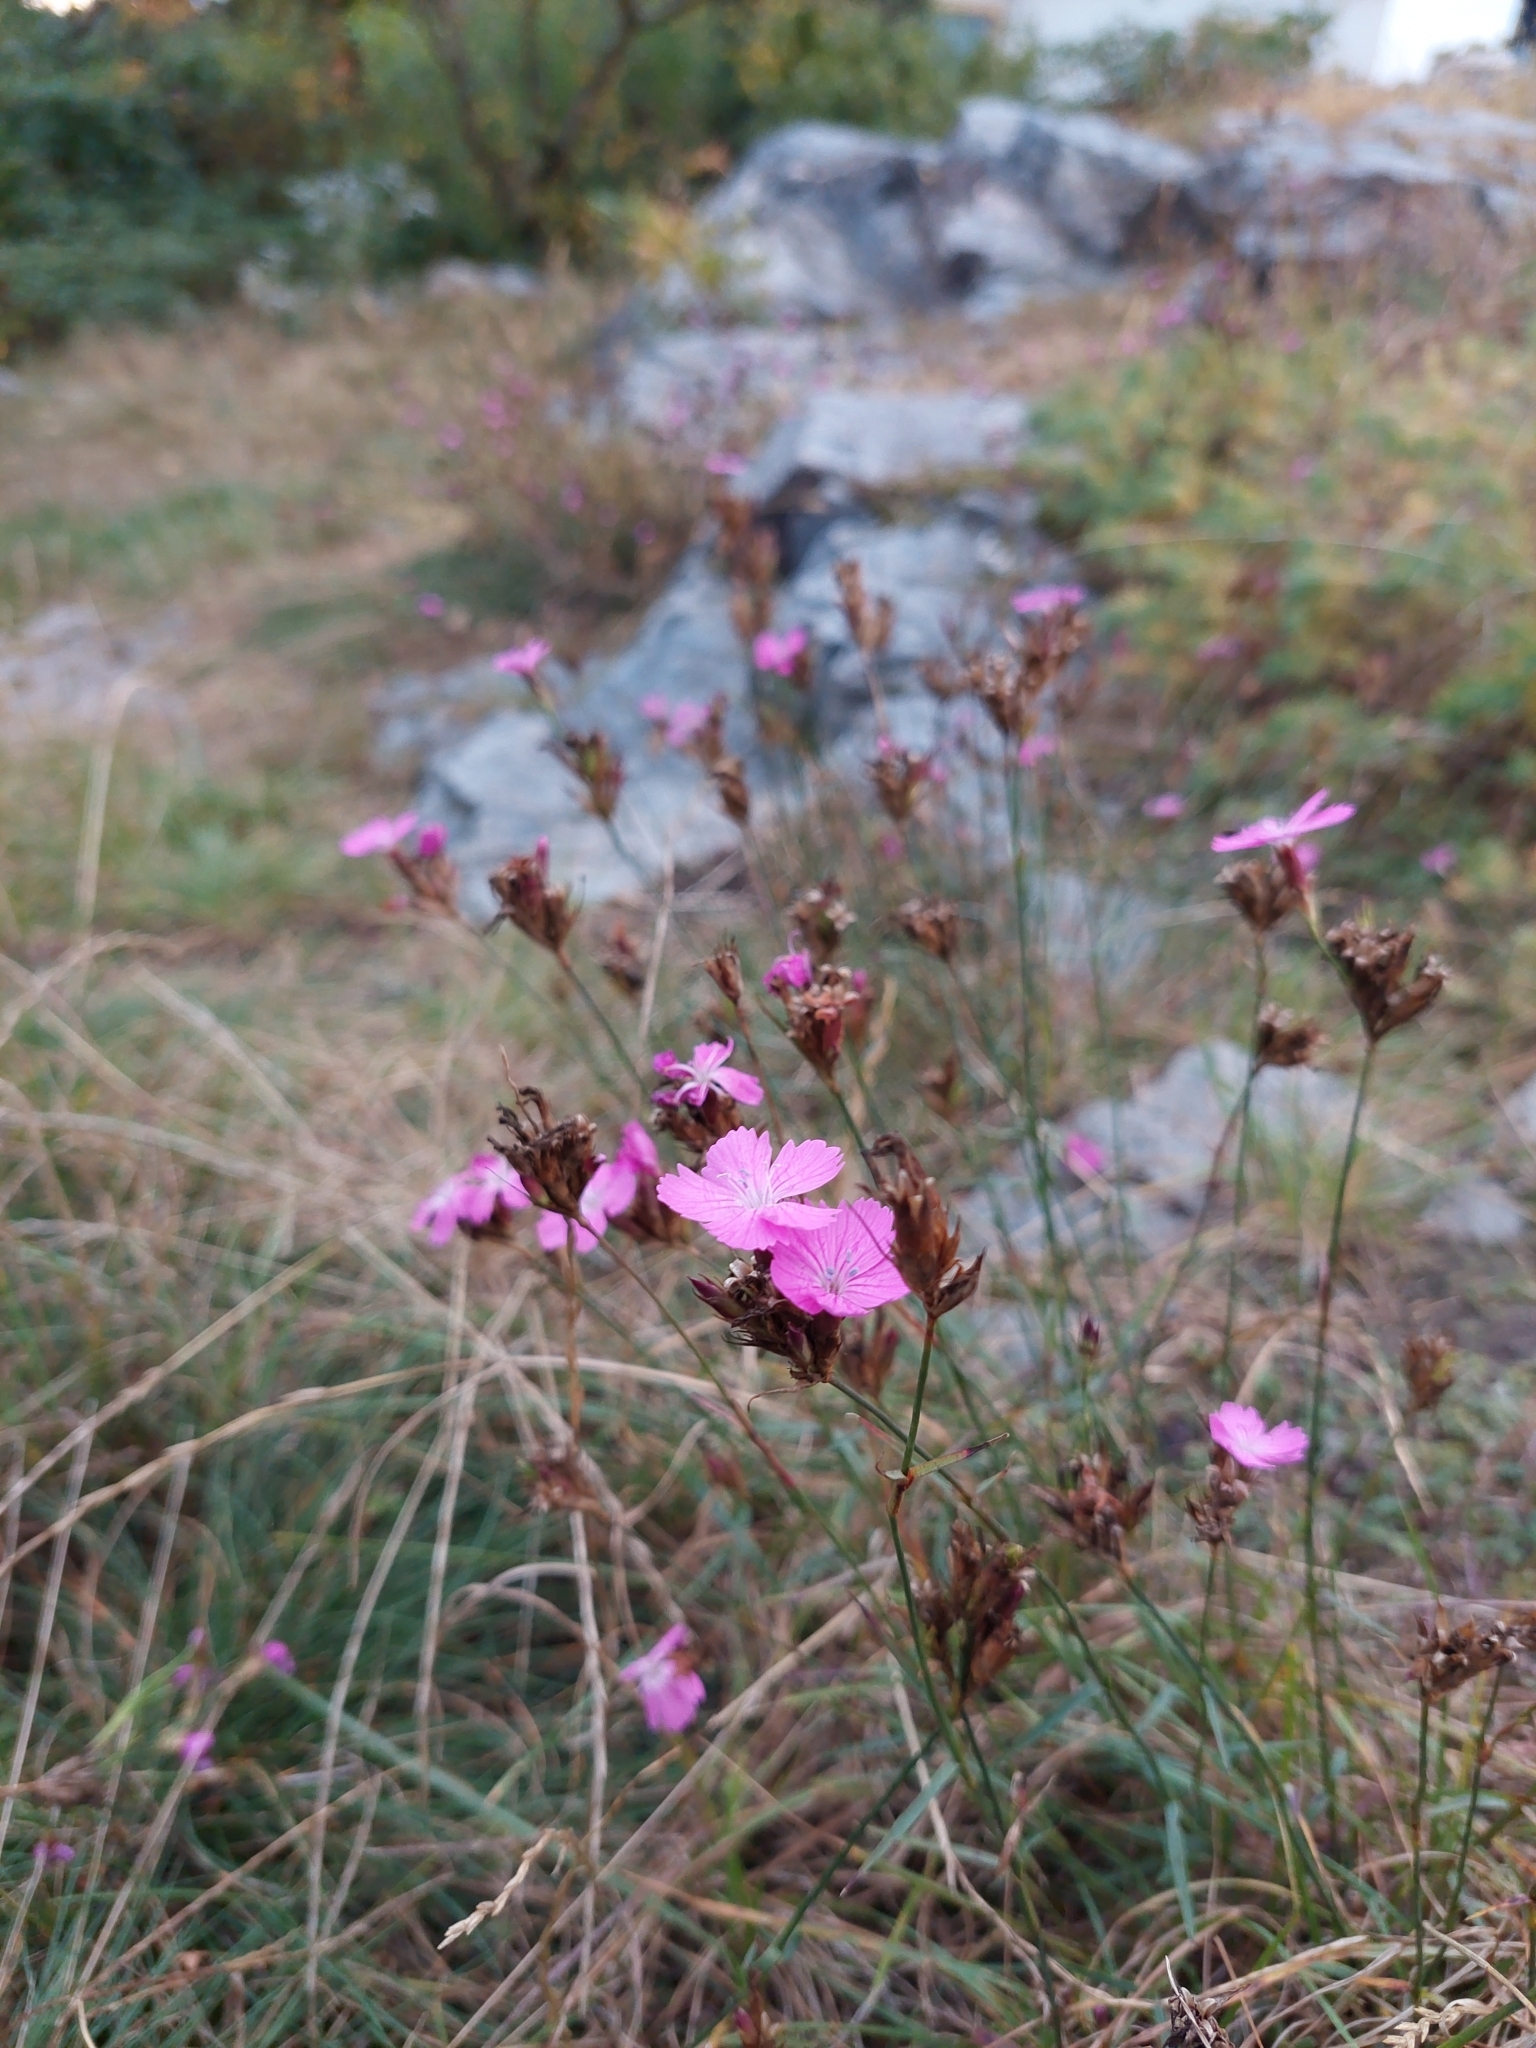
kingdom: Plantae
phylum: Tracheophyta
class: Magnoliopsida
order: Caryophyllales
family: Caryophyllaceae
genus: Dianthus
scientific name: Dianthus carthusianorum
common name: Carthusian pink
